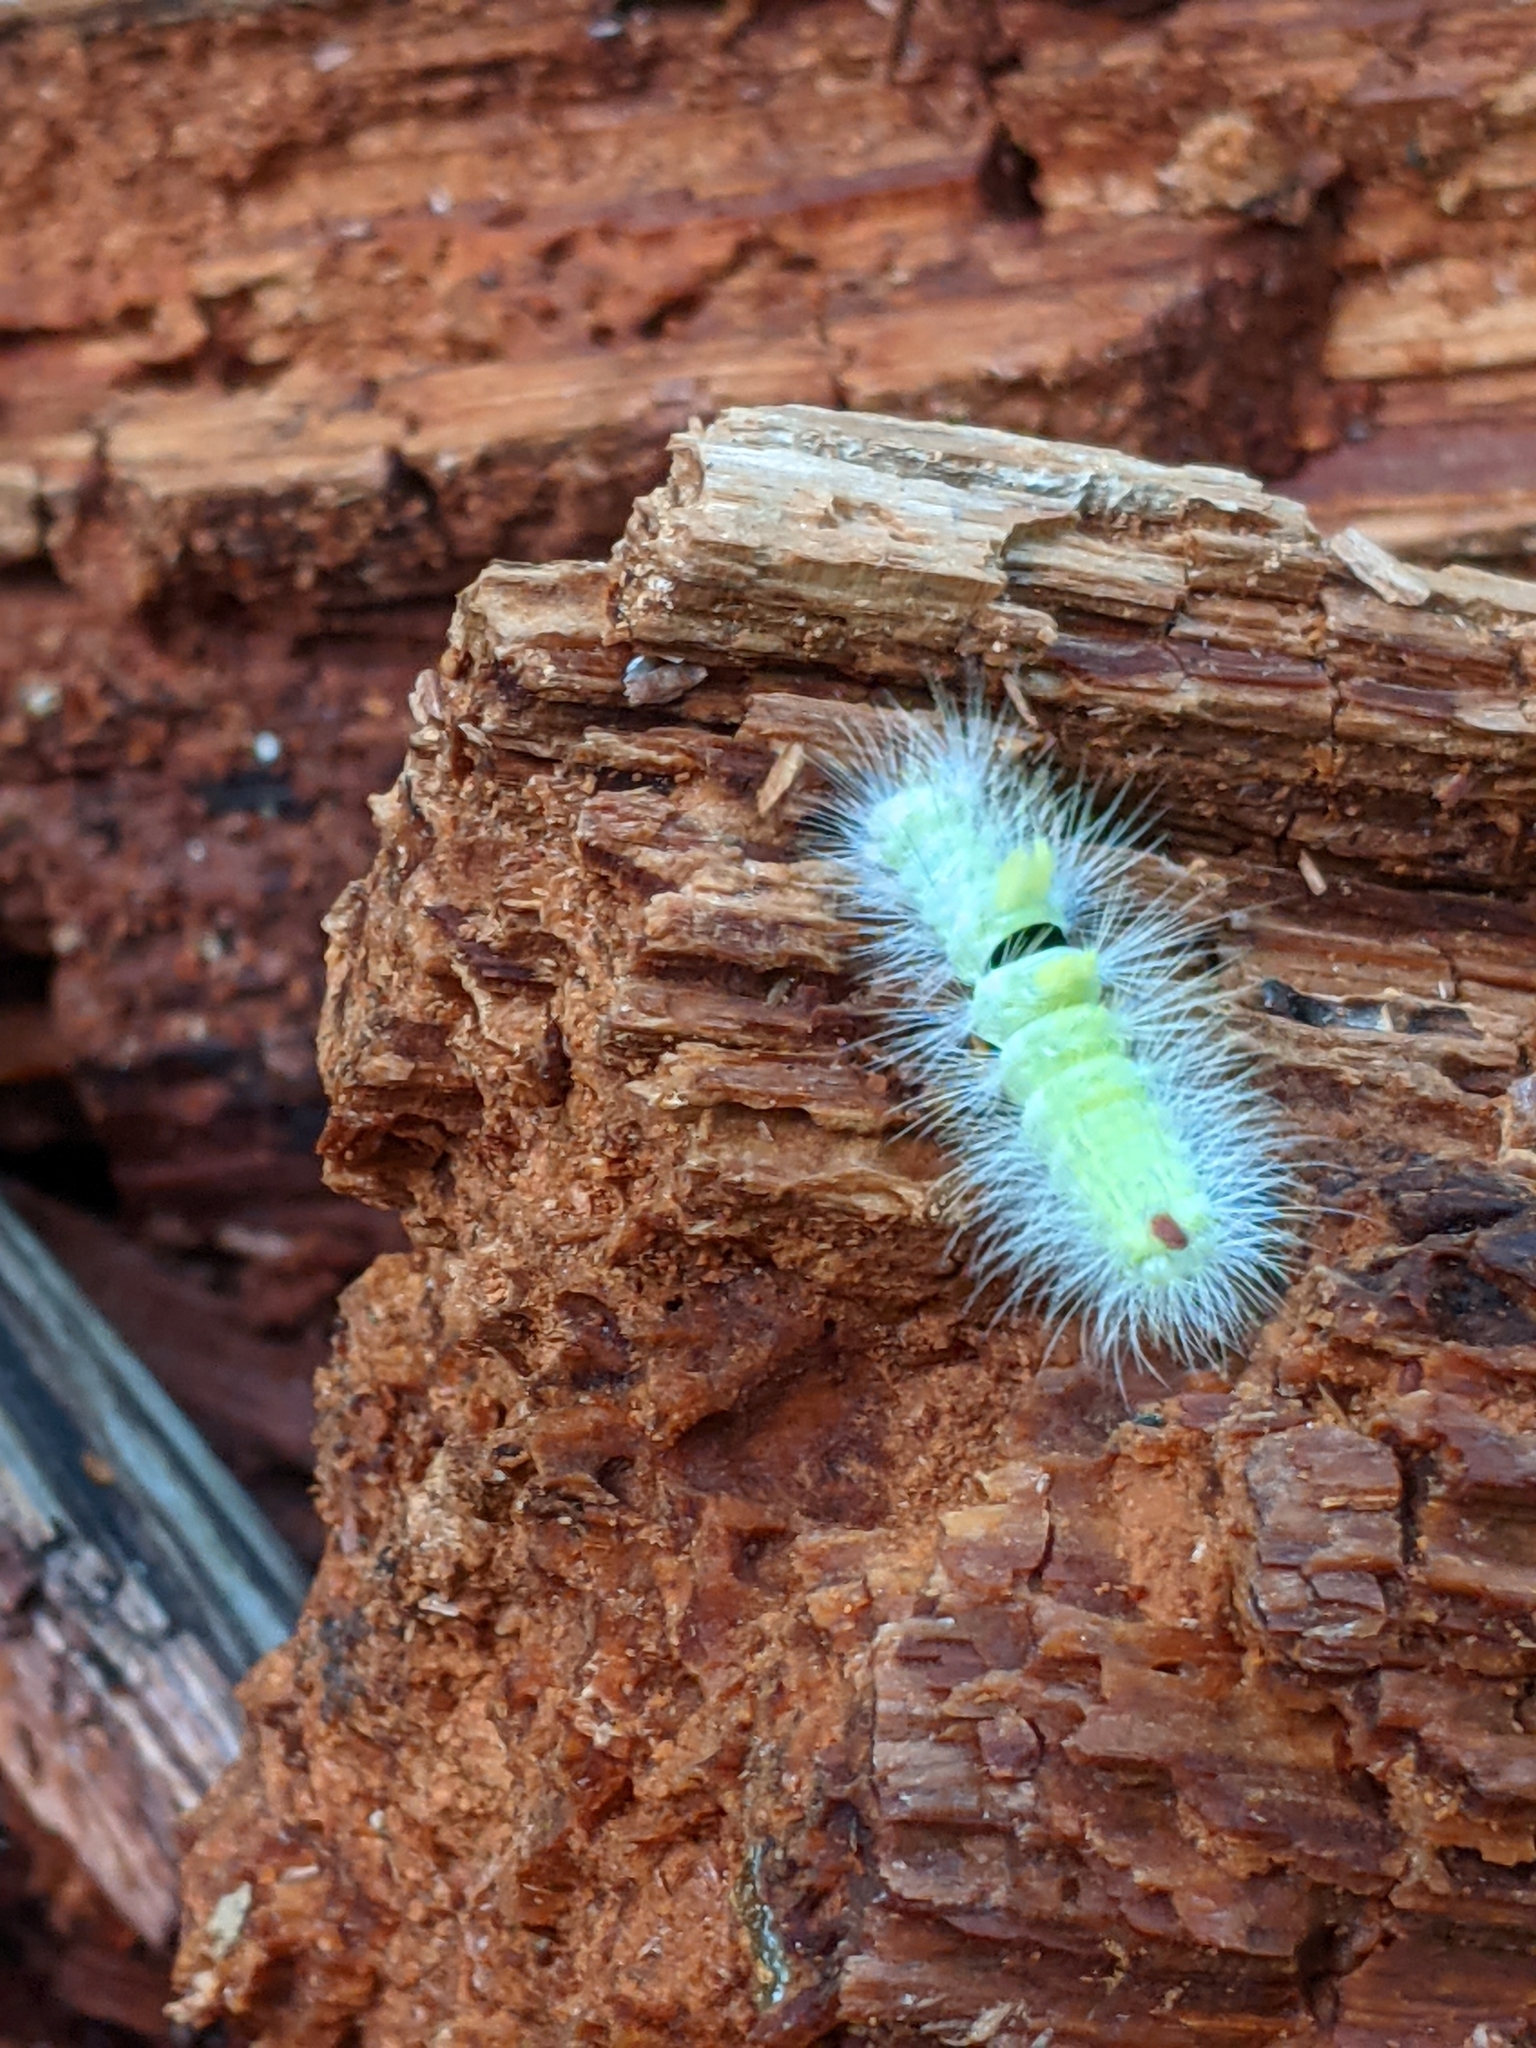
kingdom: Animalia
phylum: Arthropoda
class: Insecta
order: Lepidoptera
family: Erebidae
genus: Calliteara
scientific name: Calliteara pudibunda
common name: Pale tussock
